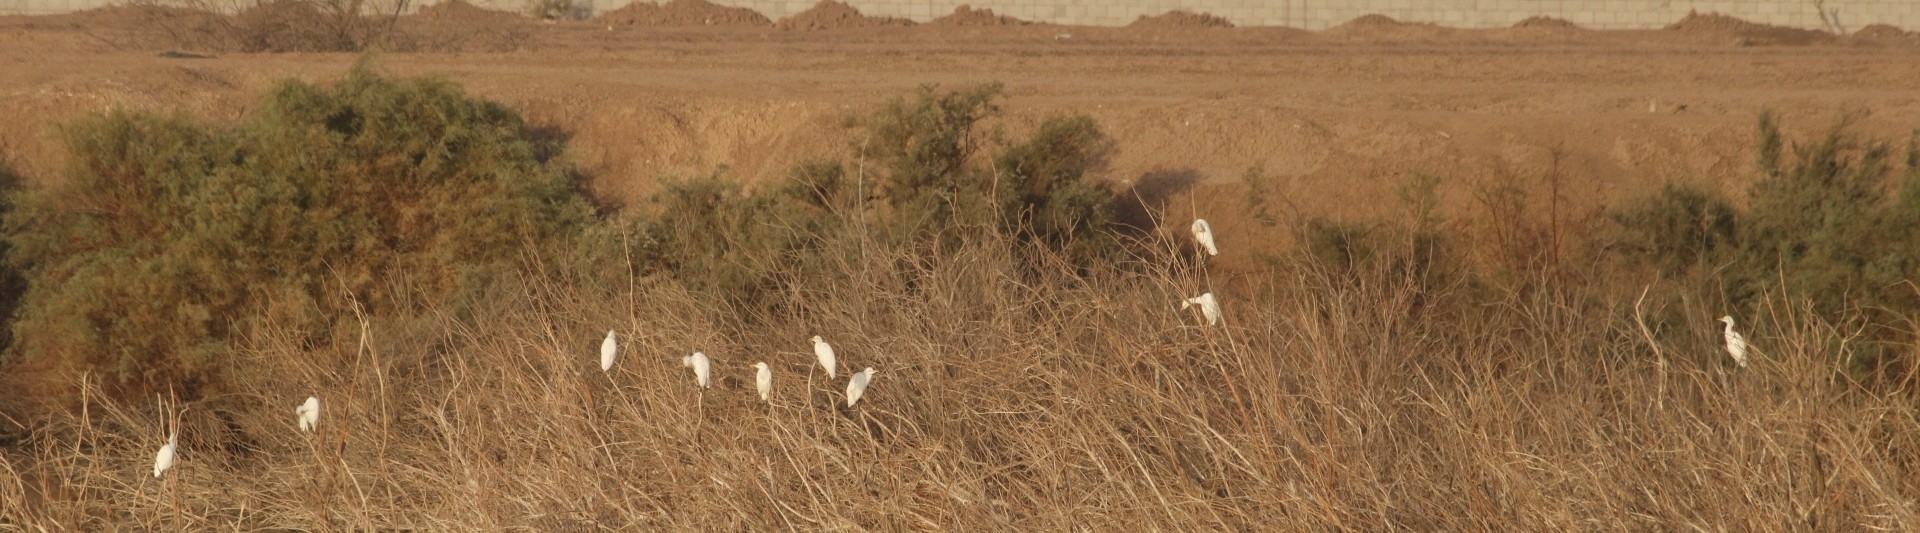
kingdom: Animalia
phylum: Chordata
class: Aves
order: Pelecaniformes
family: Ardeidae
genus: Bubulcus
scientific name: Bubulcus ibis
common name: Cattle egret
